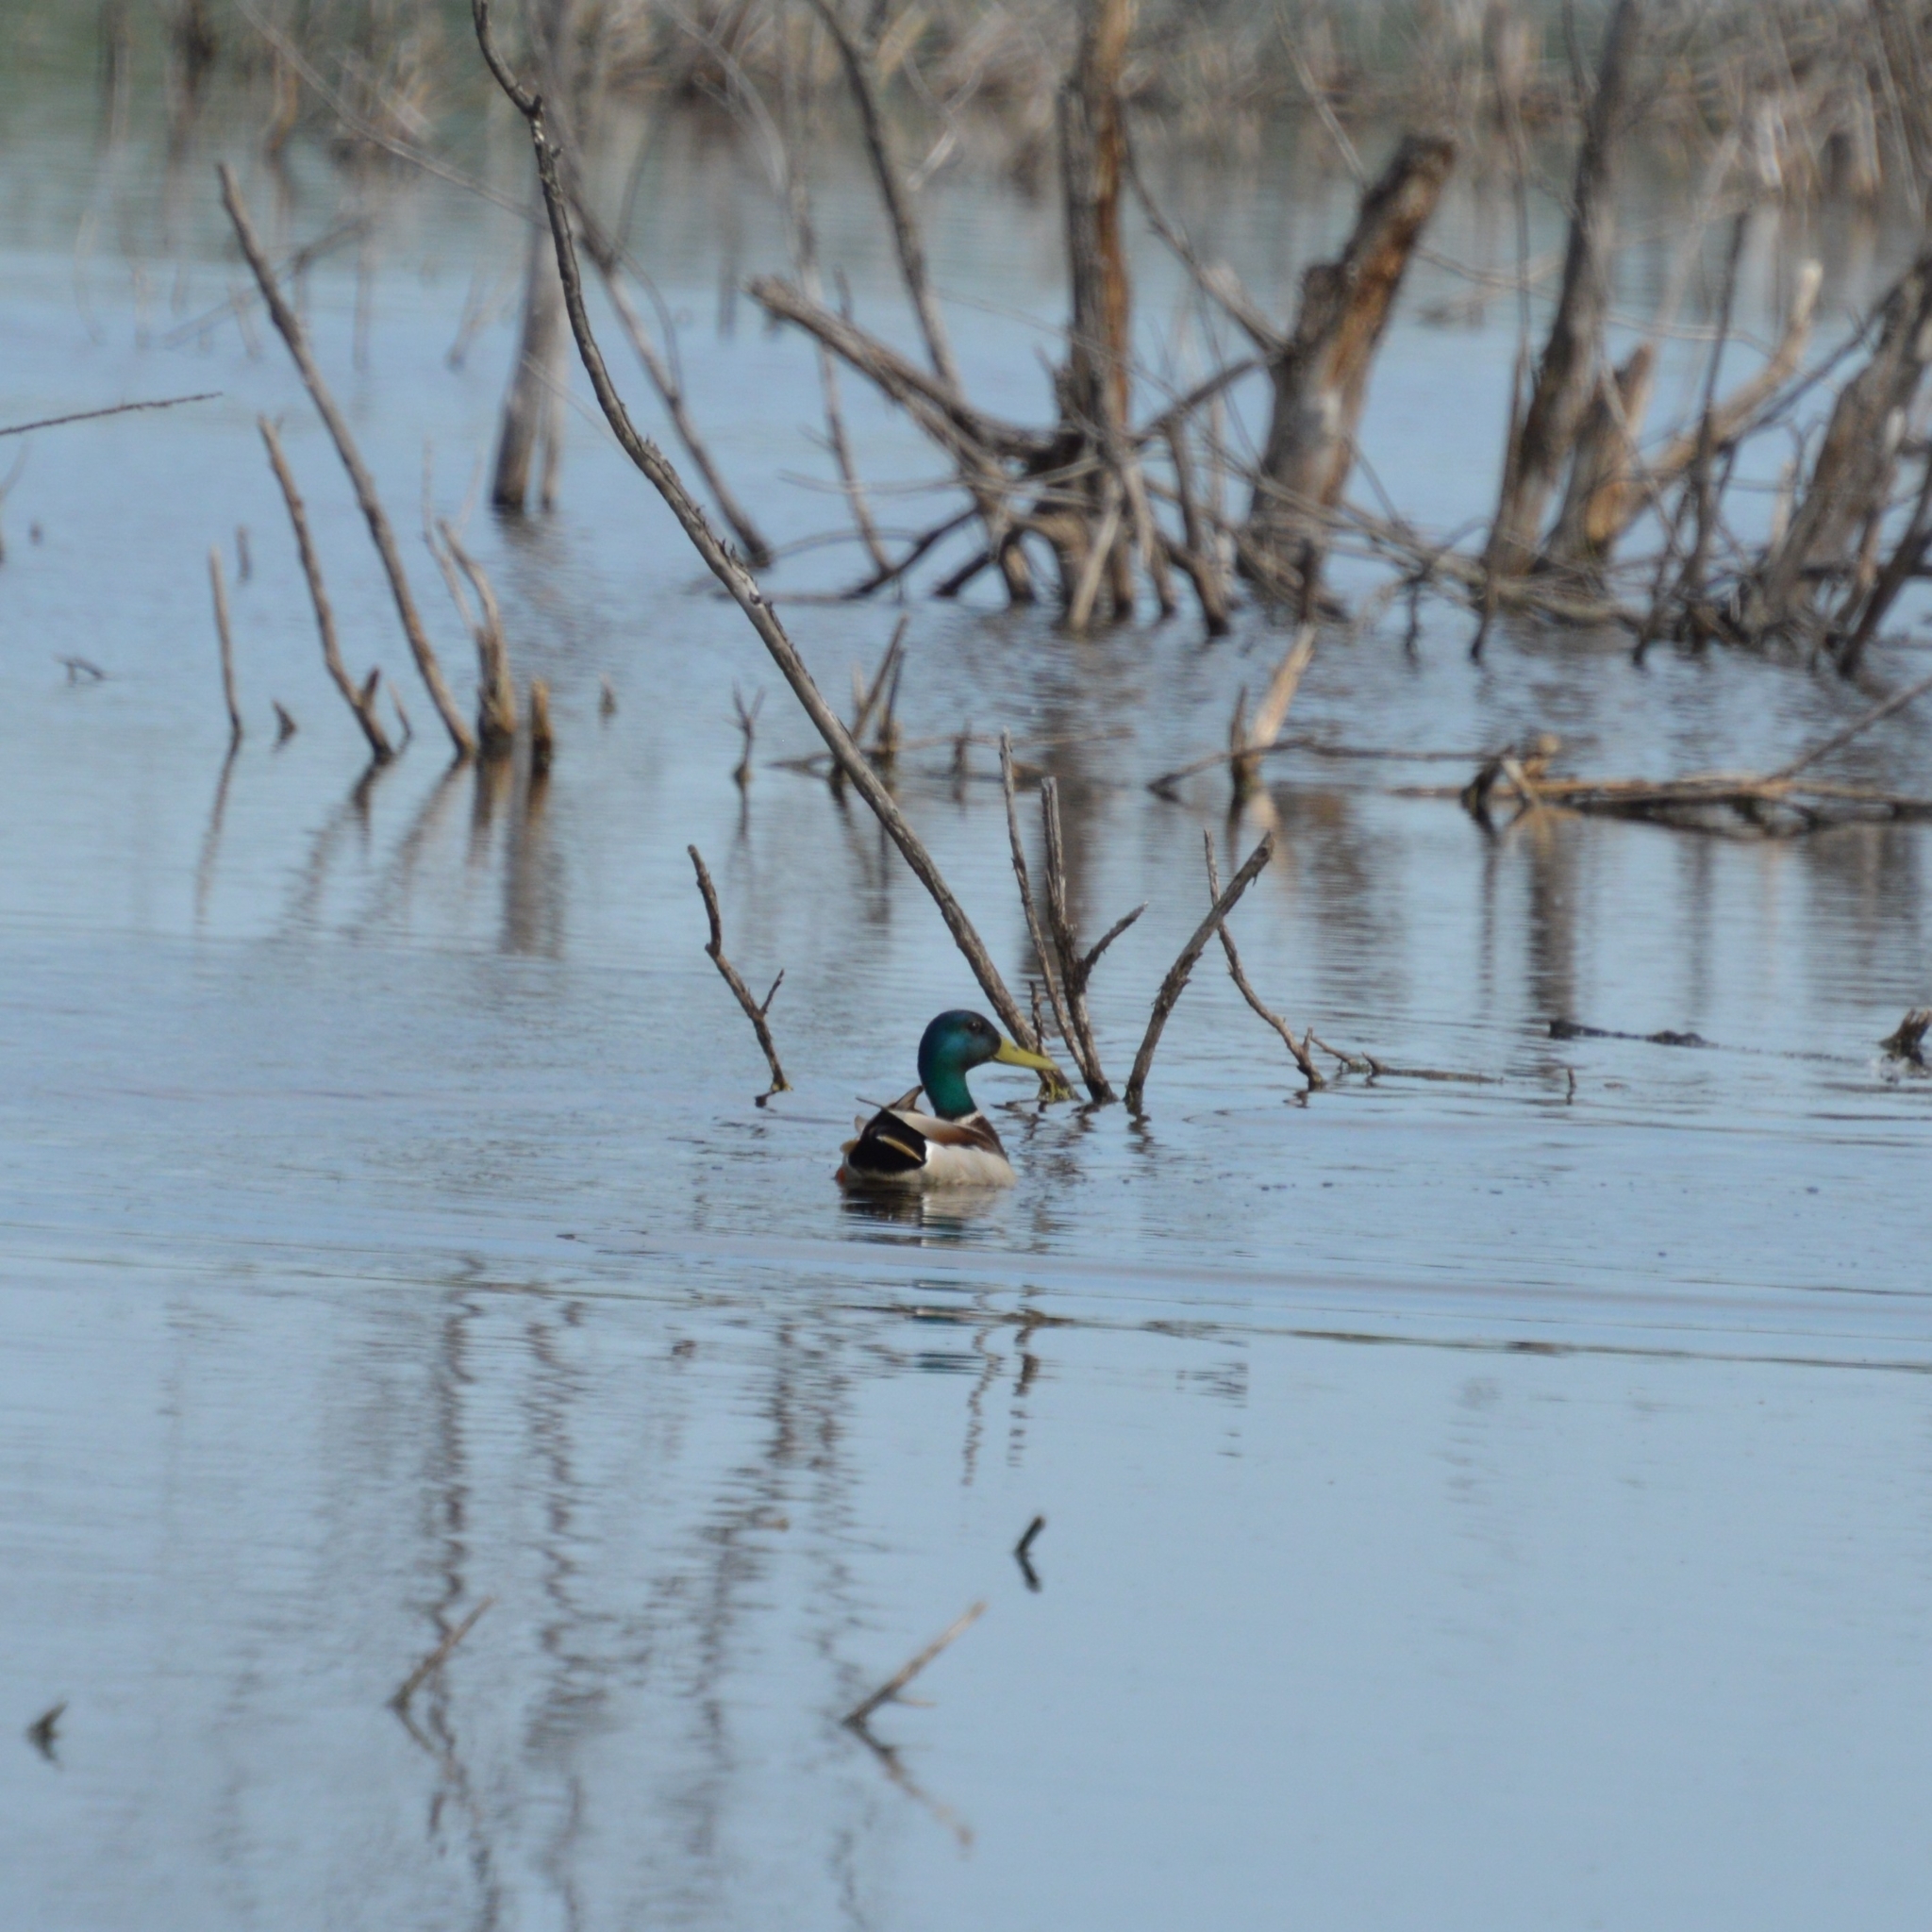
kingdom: Animalia
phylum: Chordata
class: Aves
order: Anseriformes
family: Anatidae
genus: Anas
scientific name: Anas platyrhynchos
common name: Mallard
